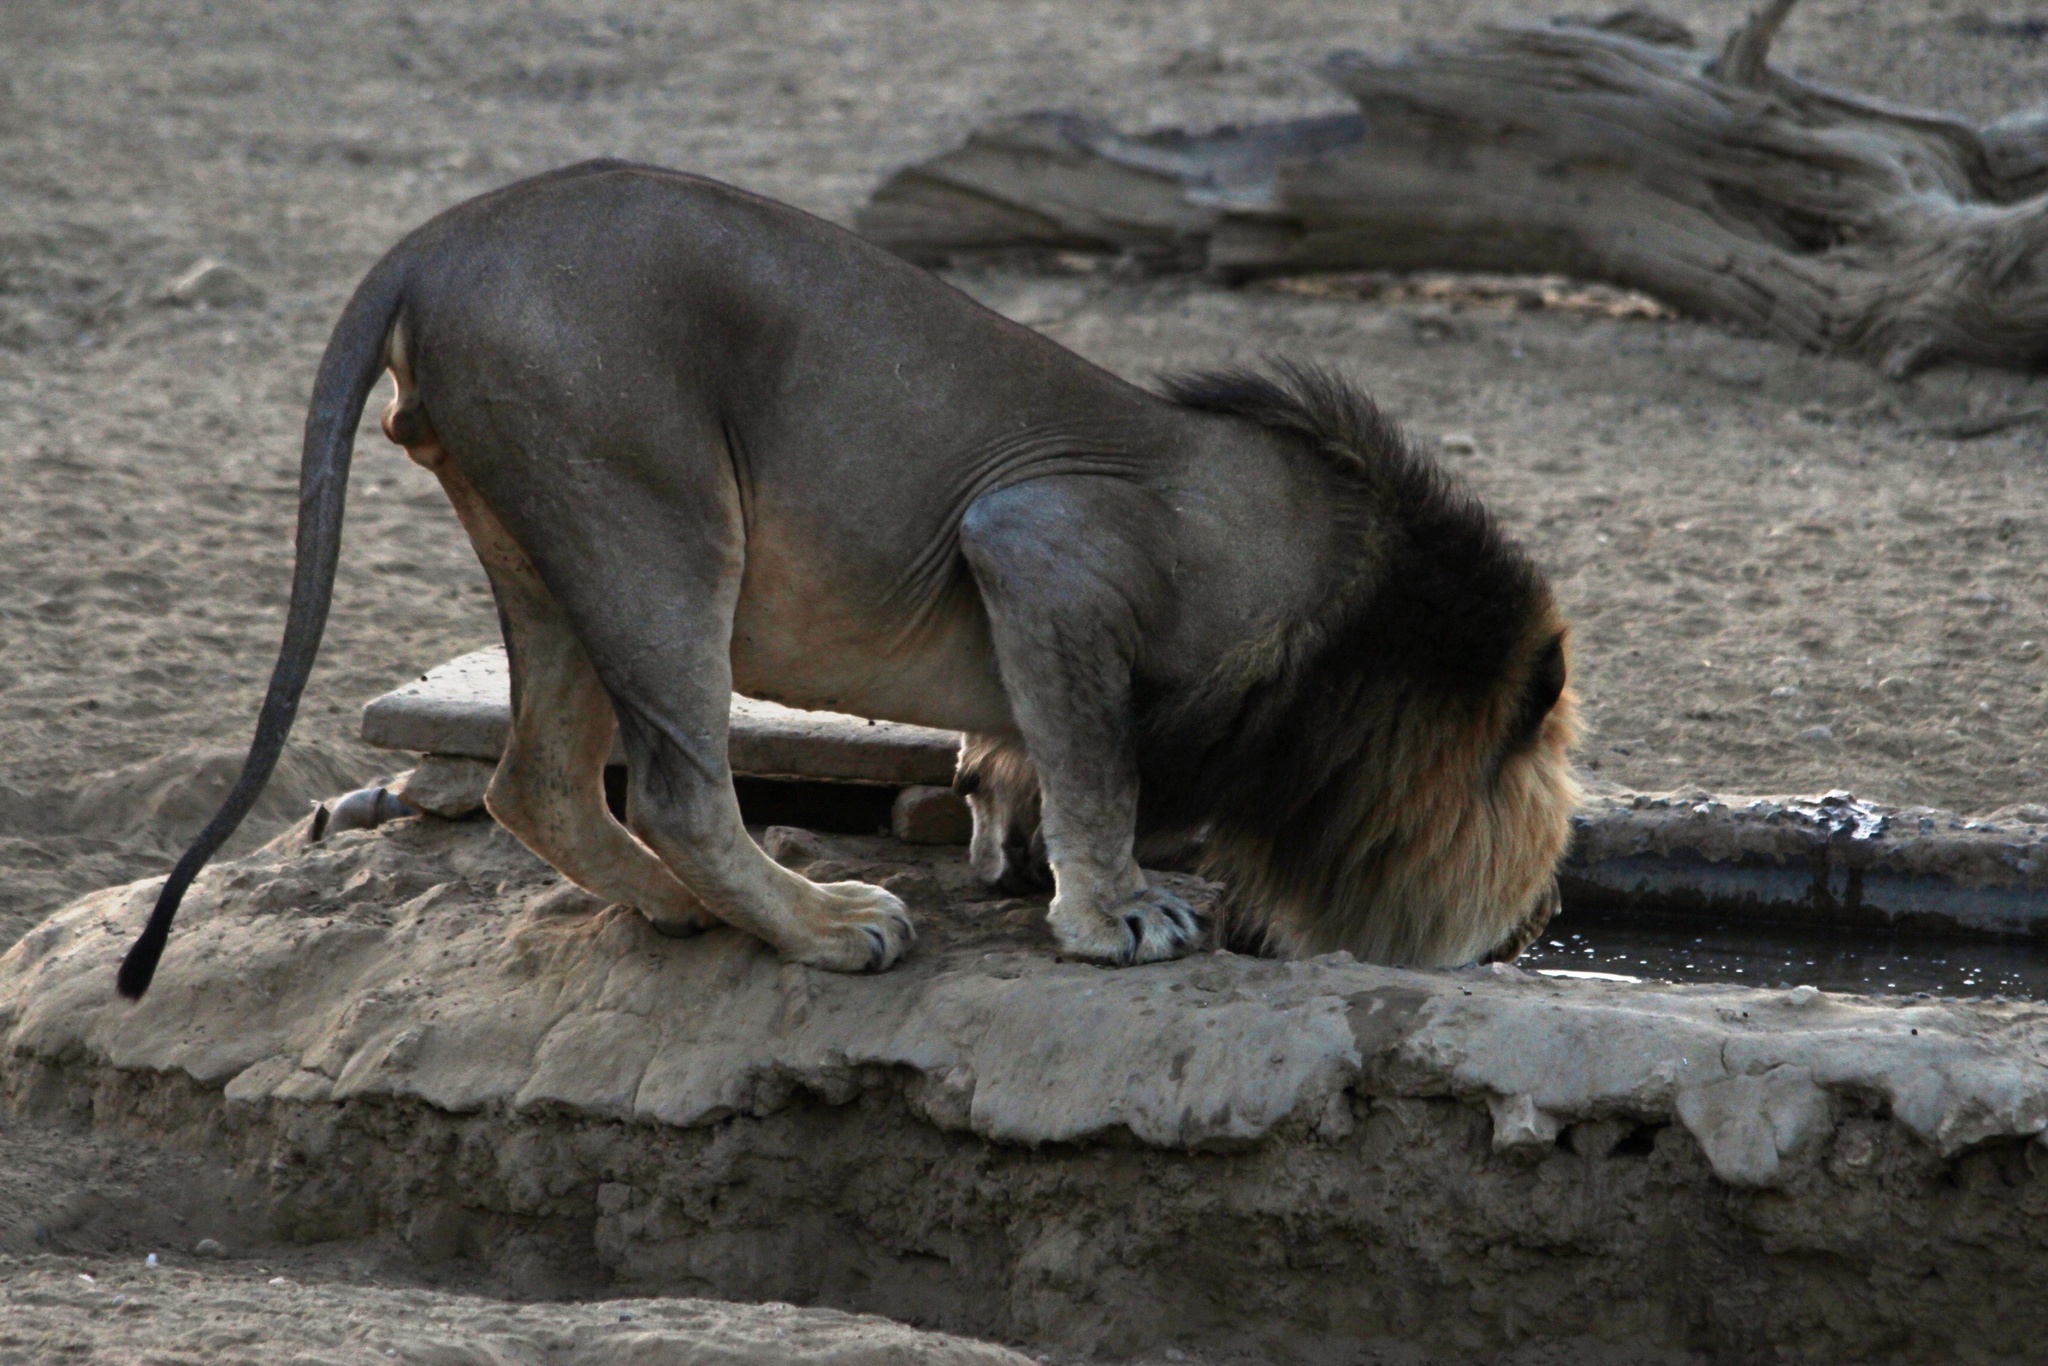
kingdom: Animalia
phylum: Chordata
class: Mammalia
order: Carnivora
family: Felidae
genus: Panthera
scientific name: Panthera leo
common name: Lion
